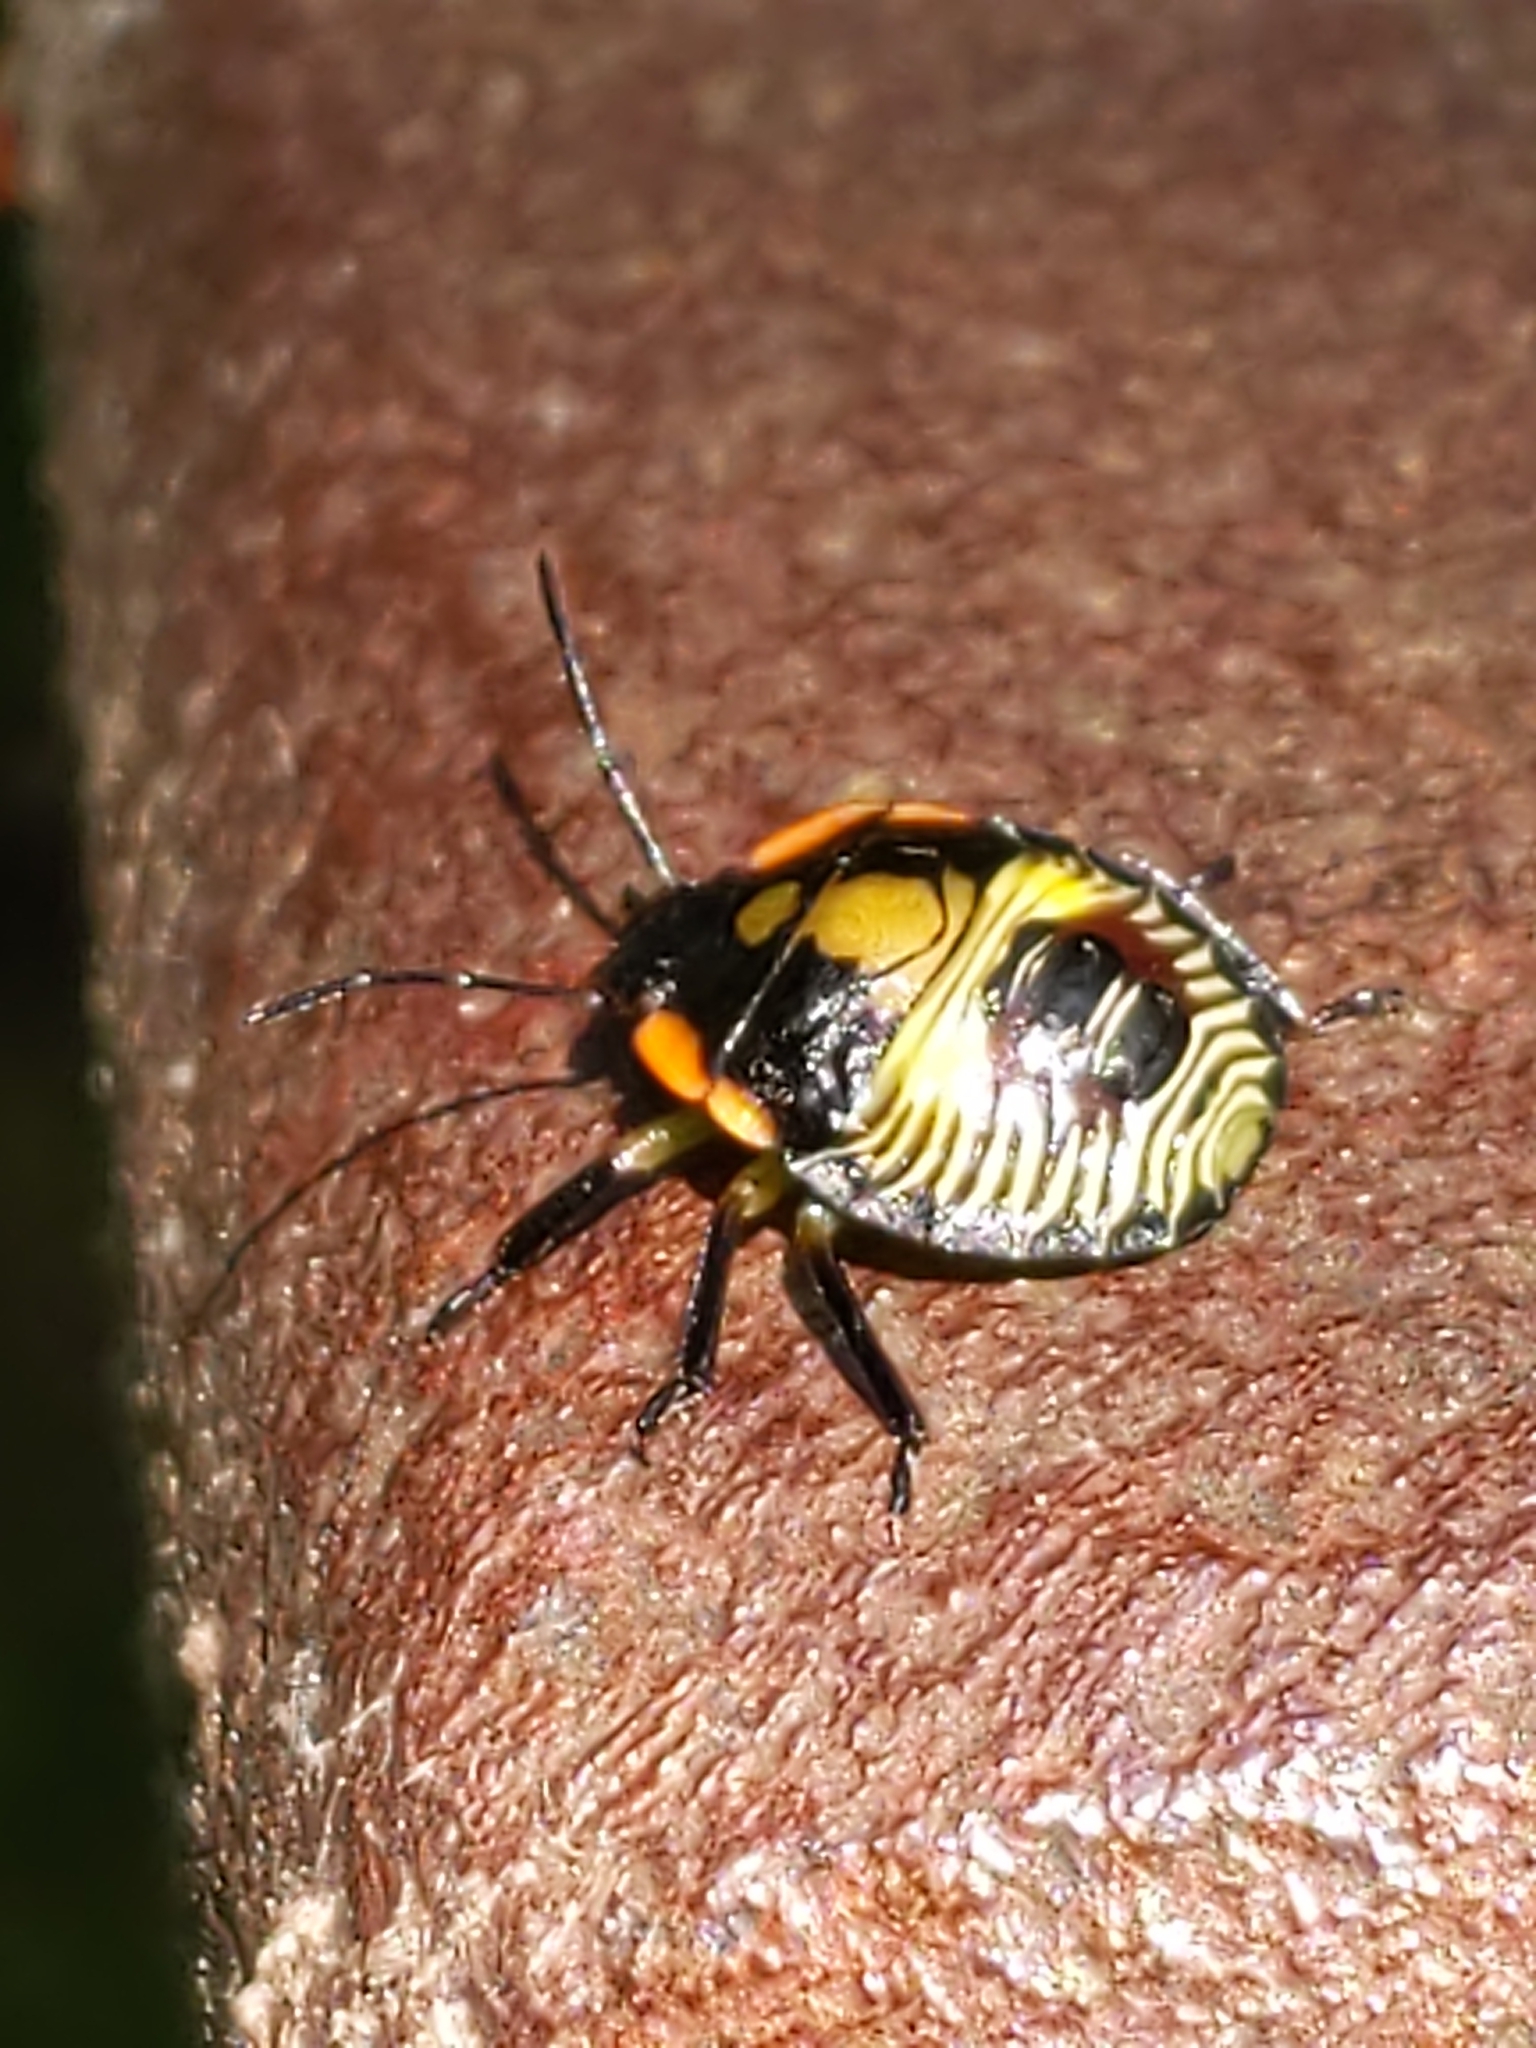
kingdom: Animalia
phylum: Arthropoda
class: Insecta
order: Hemiptera
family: Pentatomidae
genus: Chinavia
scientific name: Chinavia hilaris
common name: Green stink bug
